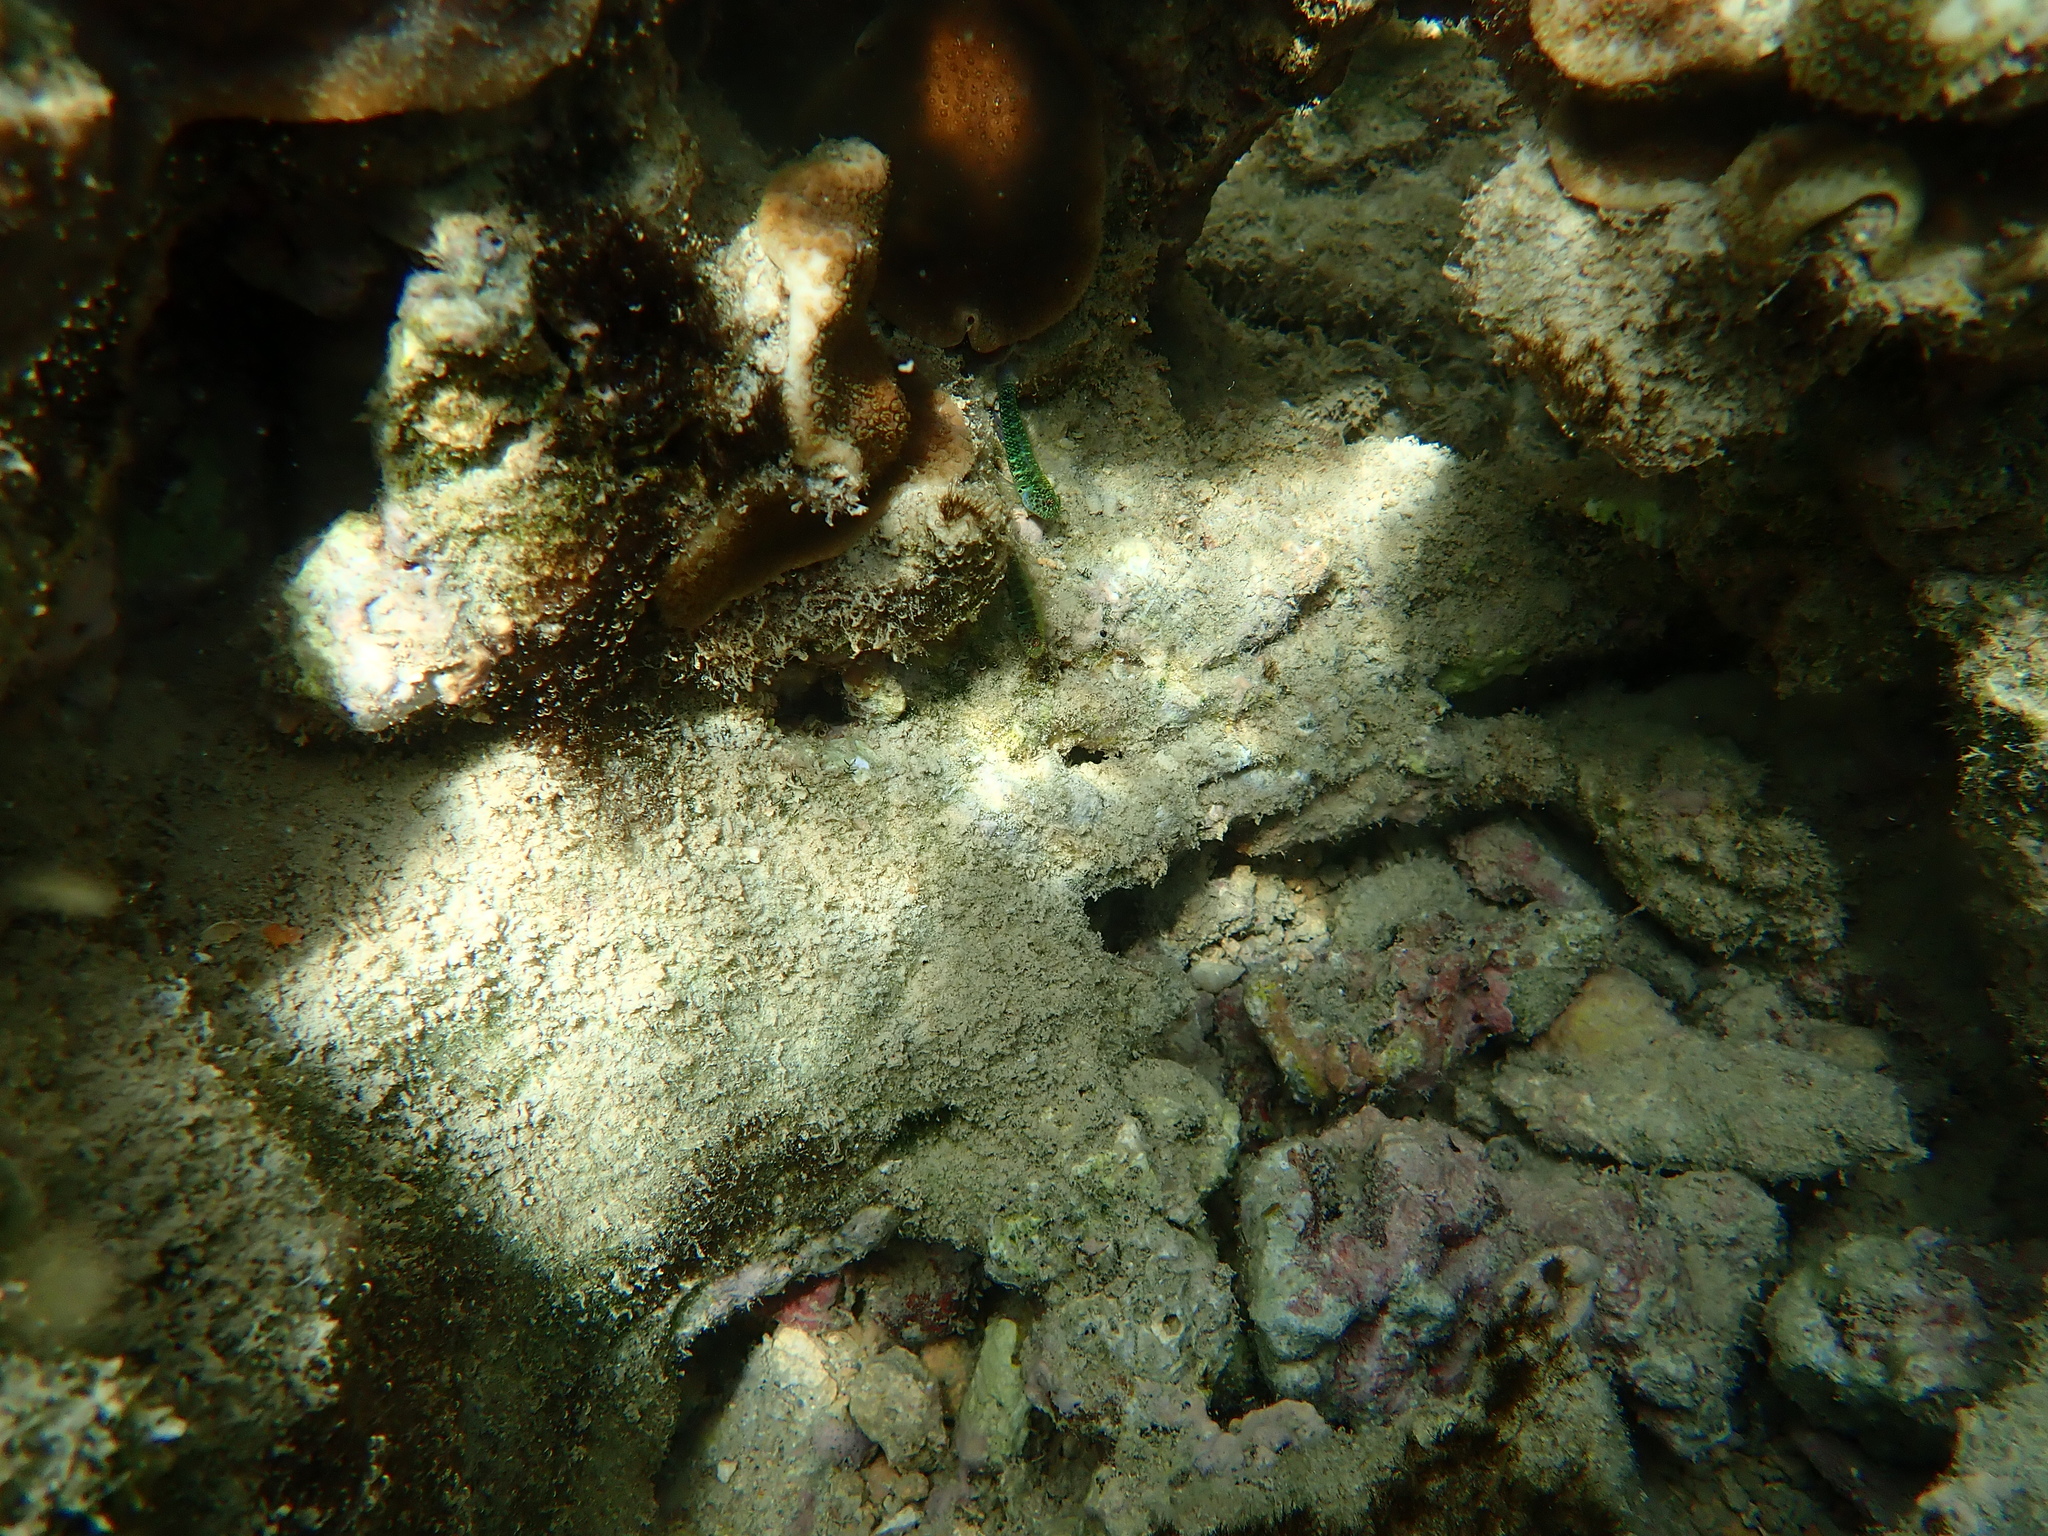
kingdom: Animalia
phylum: Chordata
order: Perciformes
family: Gobiidae
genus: Eviota
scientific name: Eviota hoesei
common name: Doug's eviota
